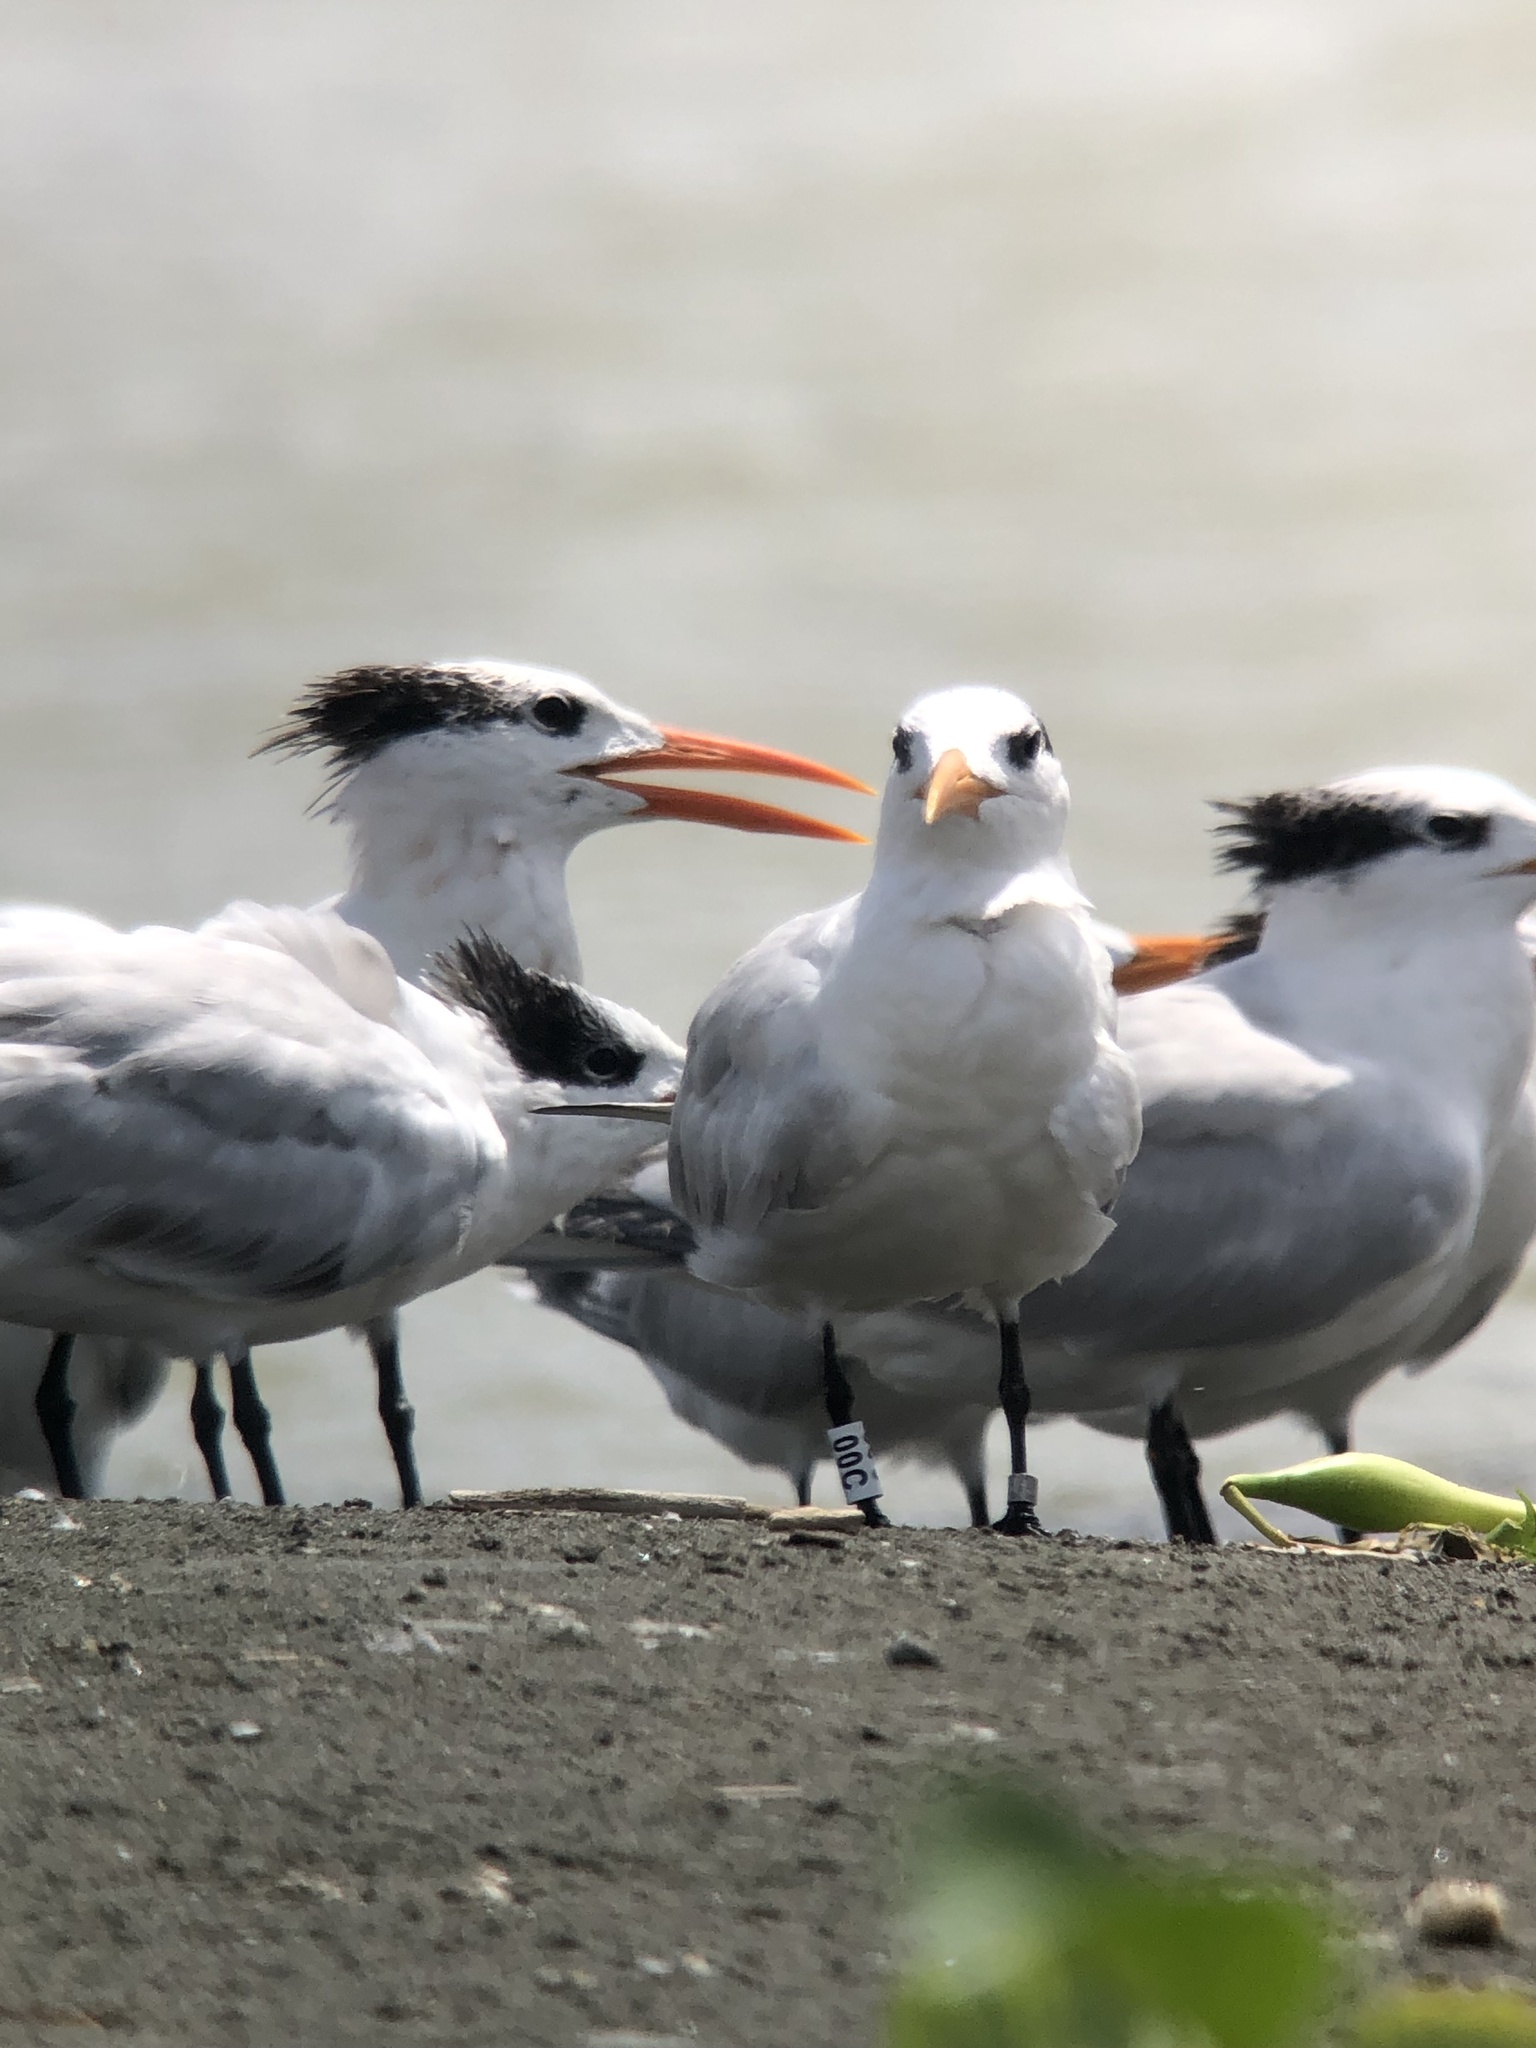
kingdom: Animalia
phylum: Chordata
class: Aves
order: Charadriiformes
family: Laridae
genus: Thalasseus
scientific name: Thalasseus maximus
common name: Royal tern
